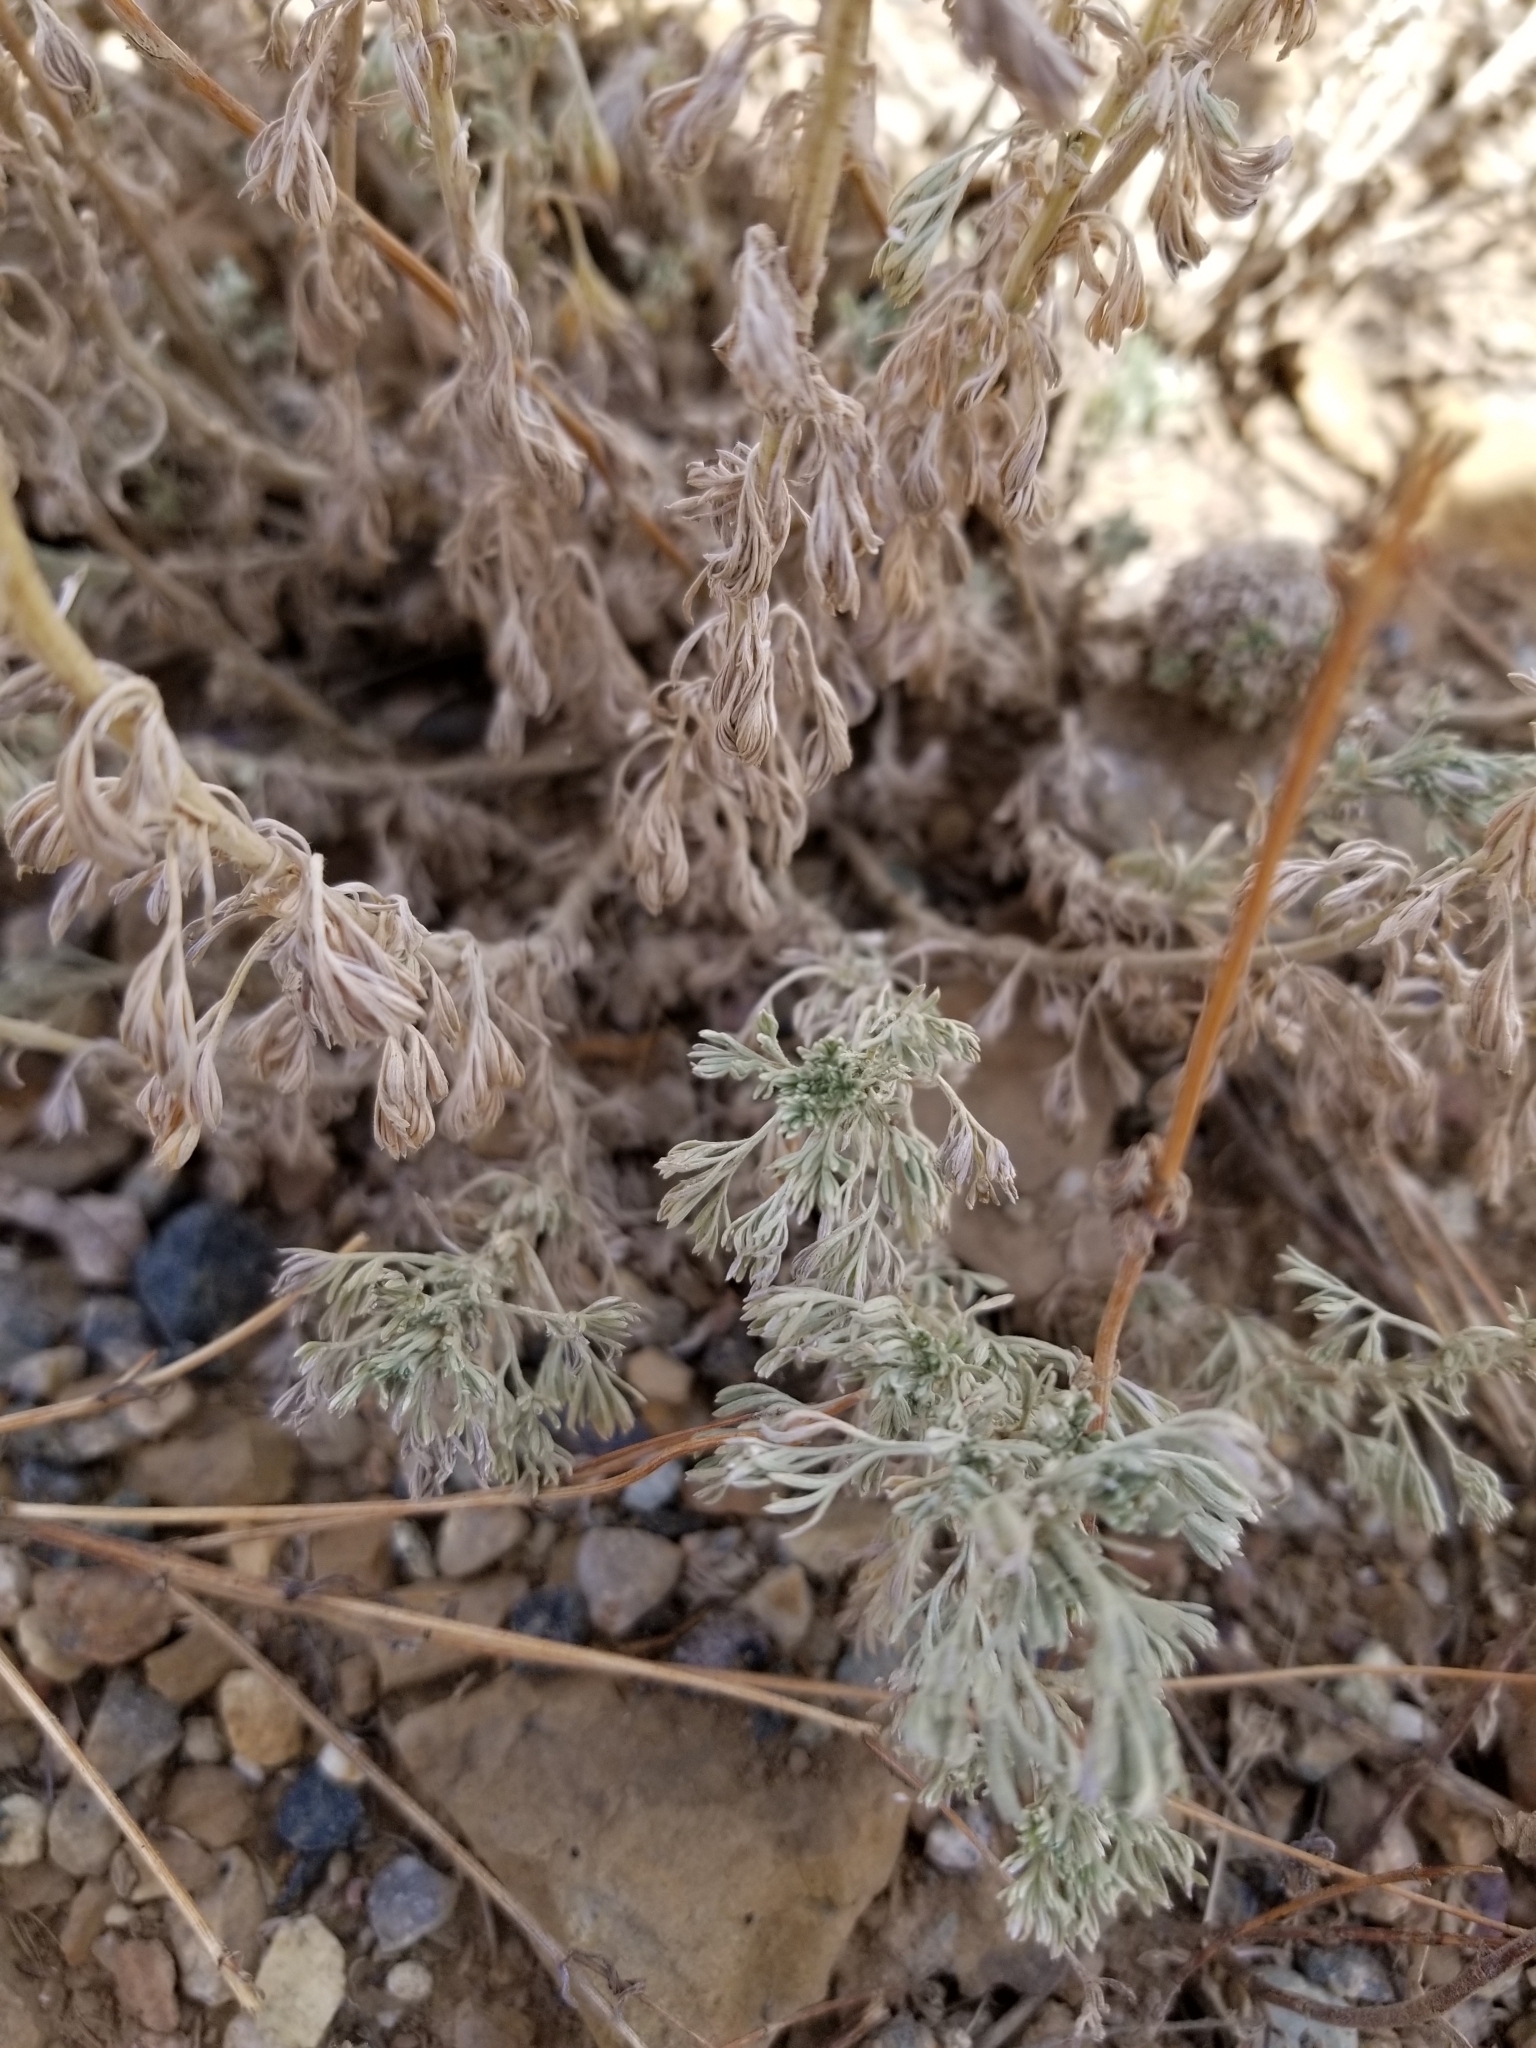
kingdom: Plantae
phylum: Tracheophyta
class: Magnoliopsida
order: Asterales
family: Asteraceae
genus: Artemisia
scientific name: Artemisia frigida
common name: Prairie sagewort
